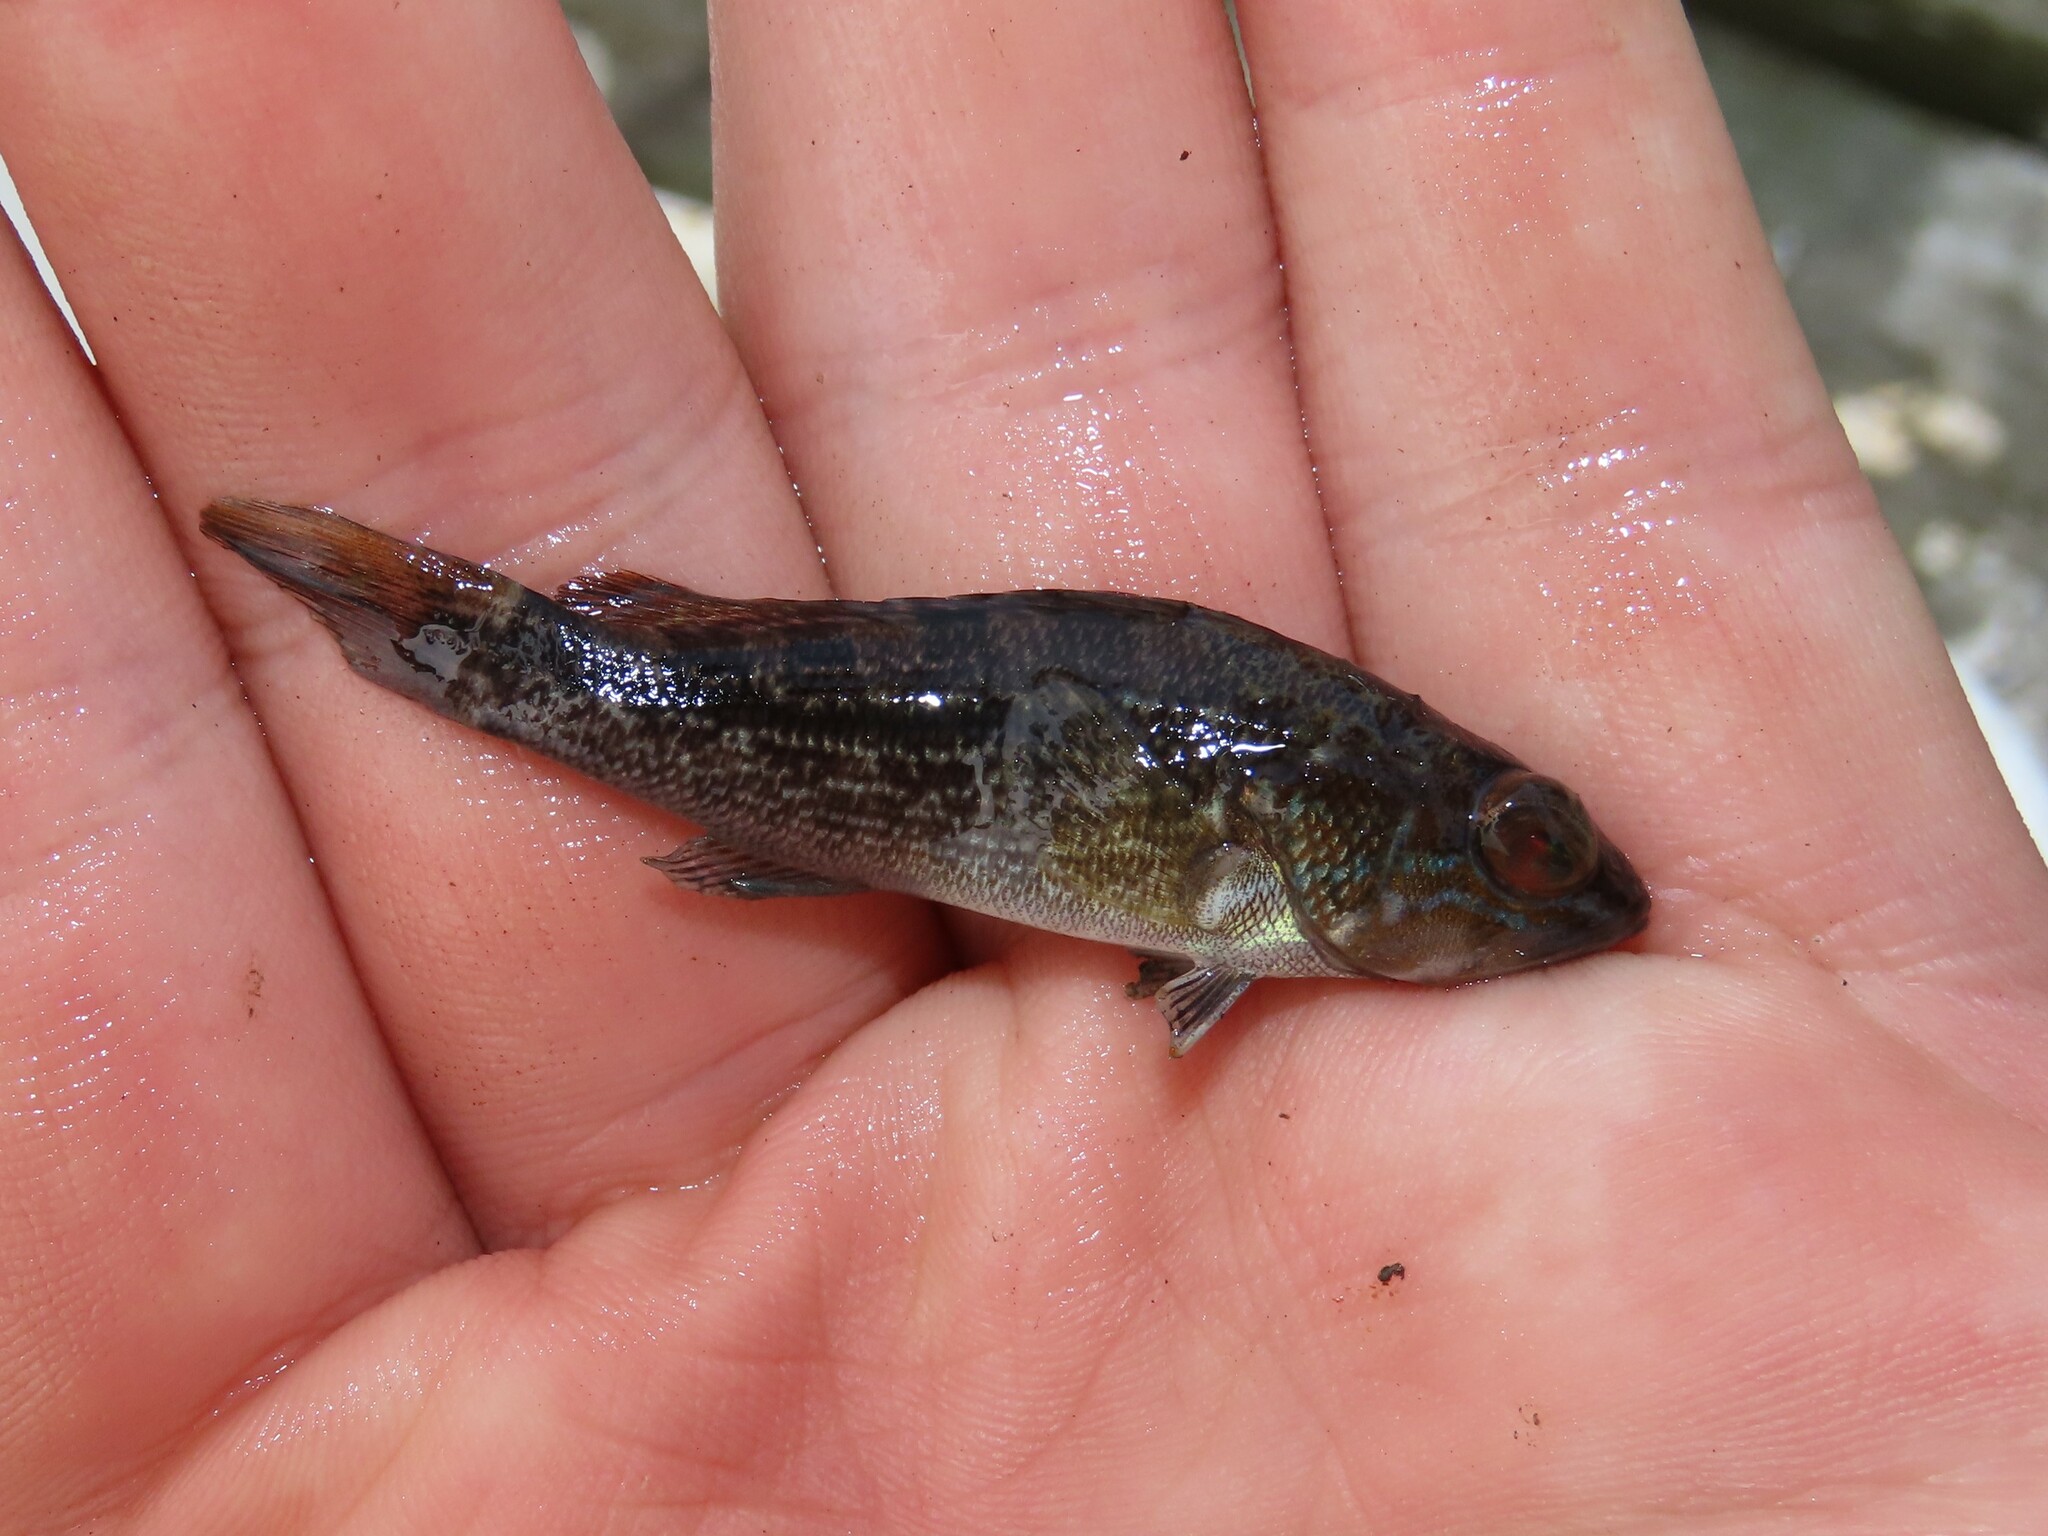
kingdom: Animalia
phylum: Chordata
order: Perciformes
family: Serranidae
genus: Centropristis
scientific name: Centropristis striata
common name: Black sea bass
